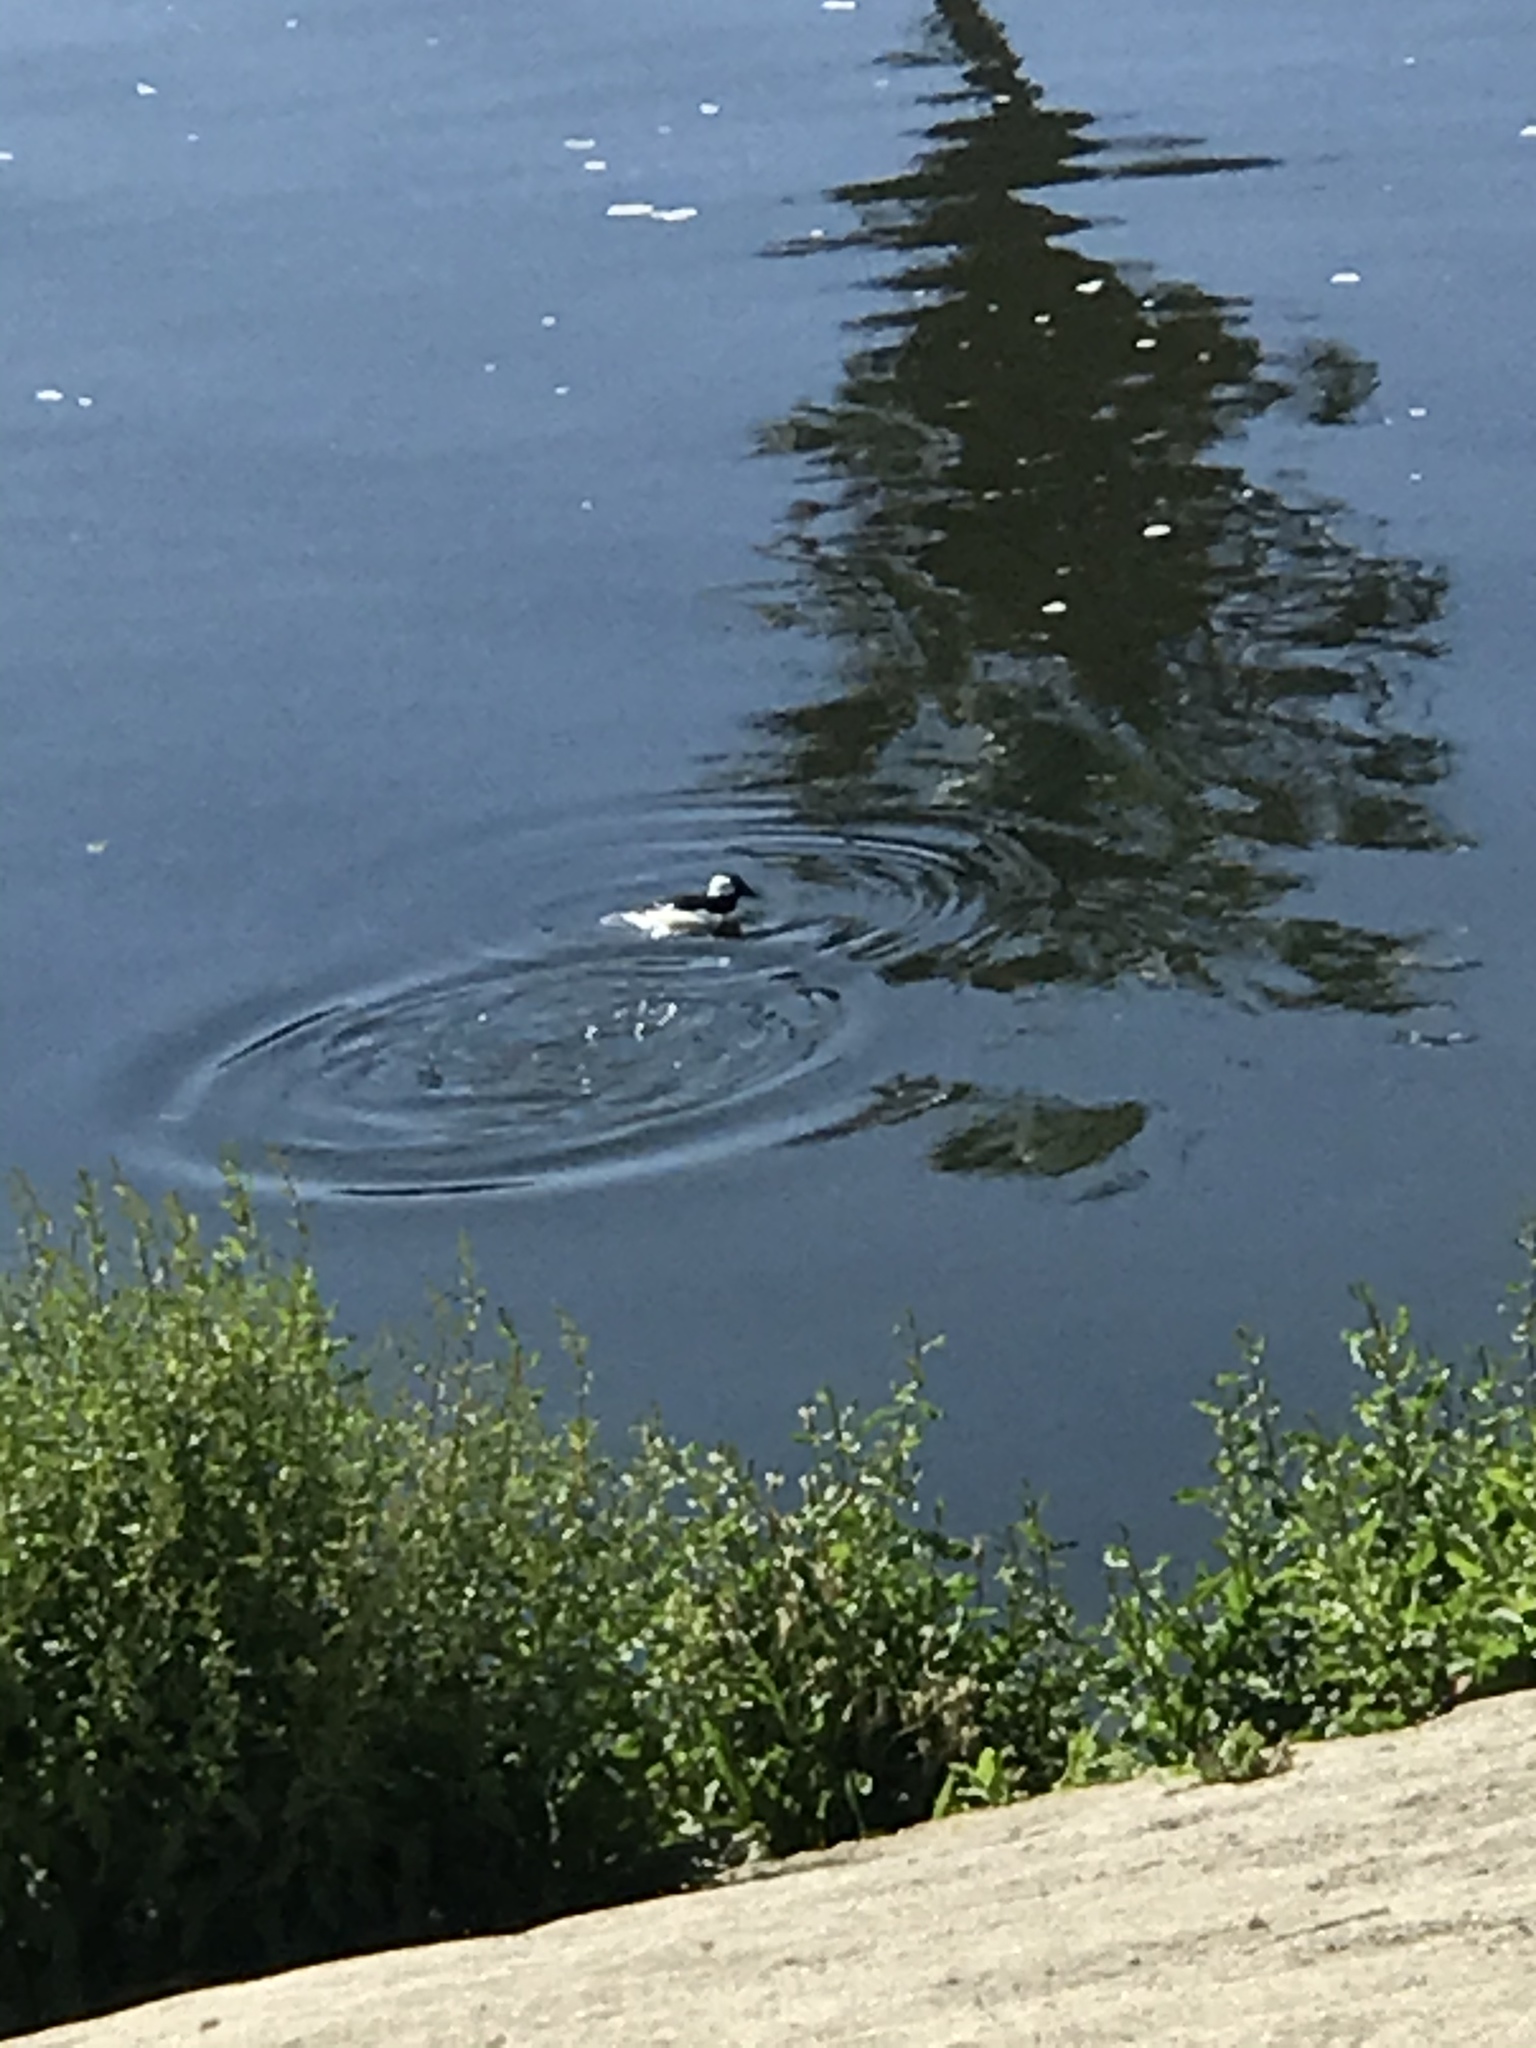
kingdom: Animalia
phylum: Chordata
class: Aves
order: Anseriformes
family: Anatidae
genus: Bucephala
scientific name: Bucephala albeola
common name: Bufflehead
